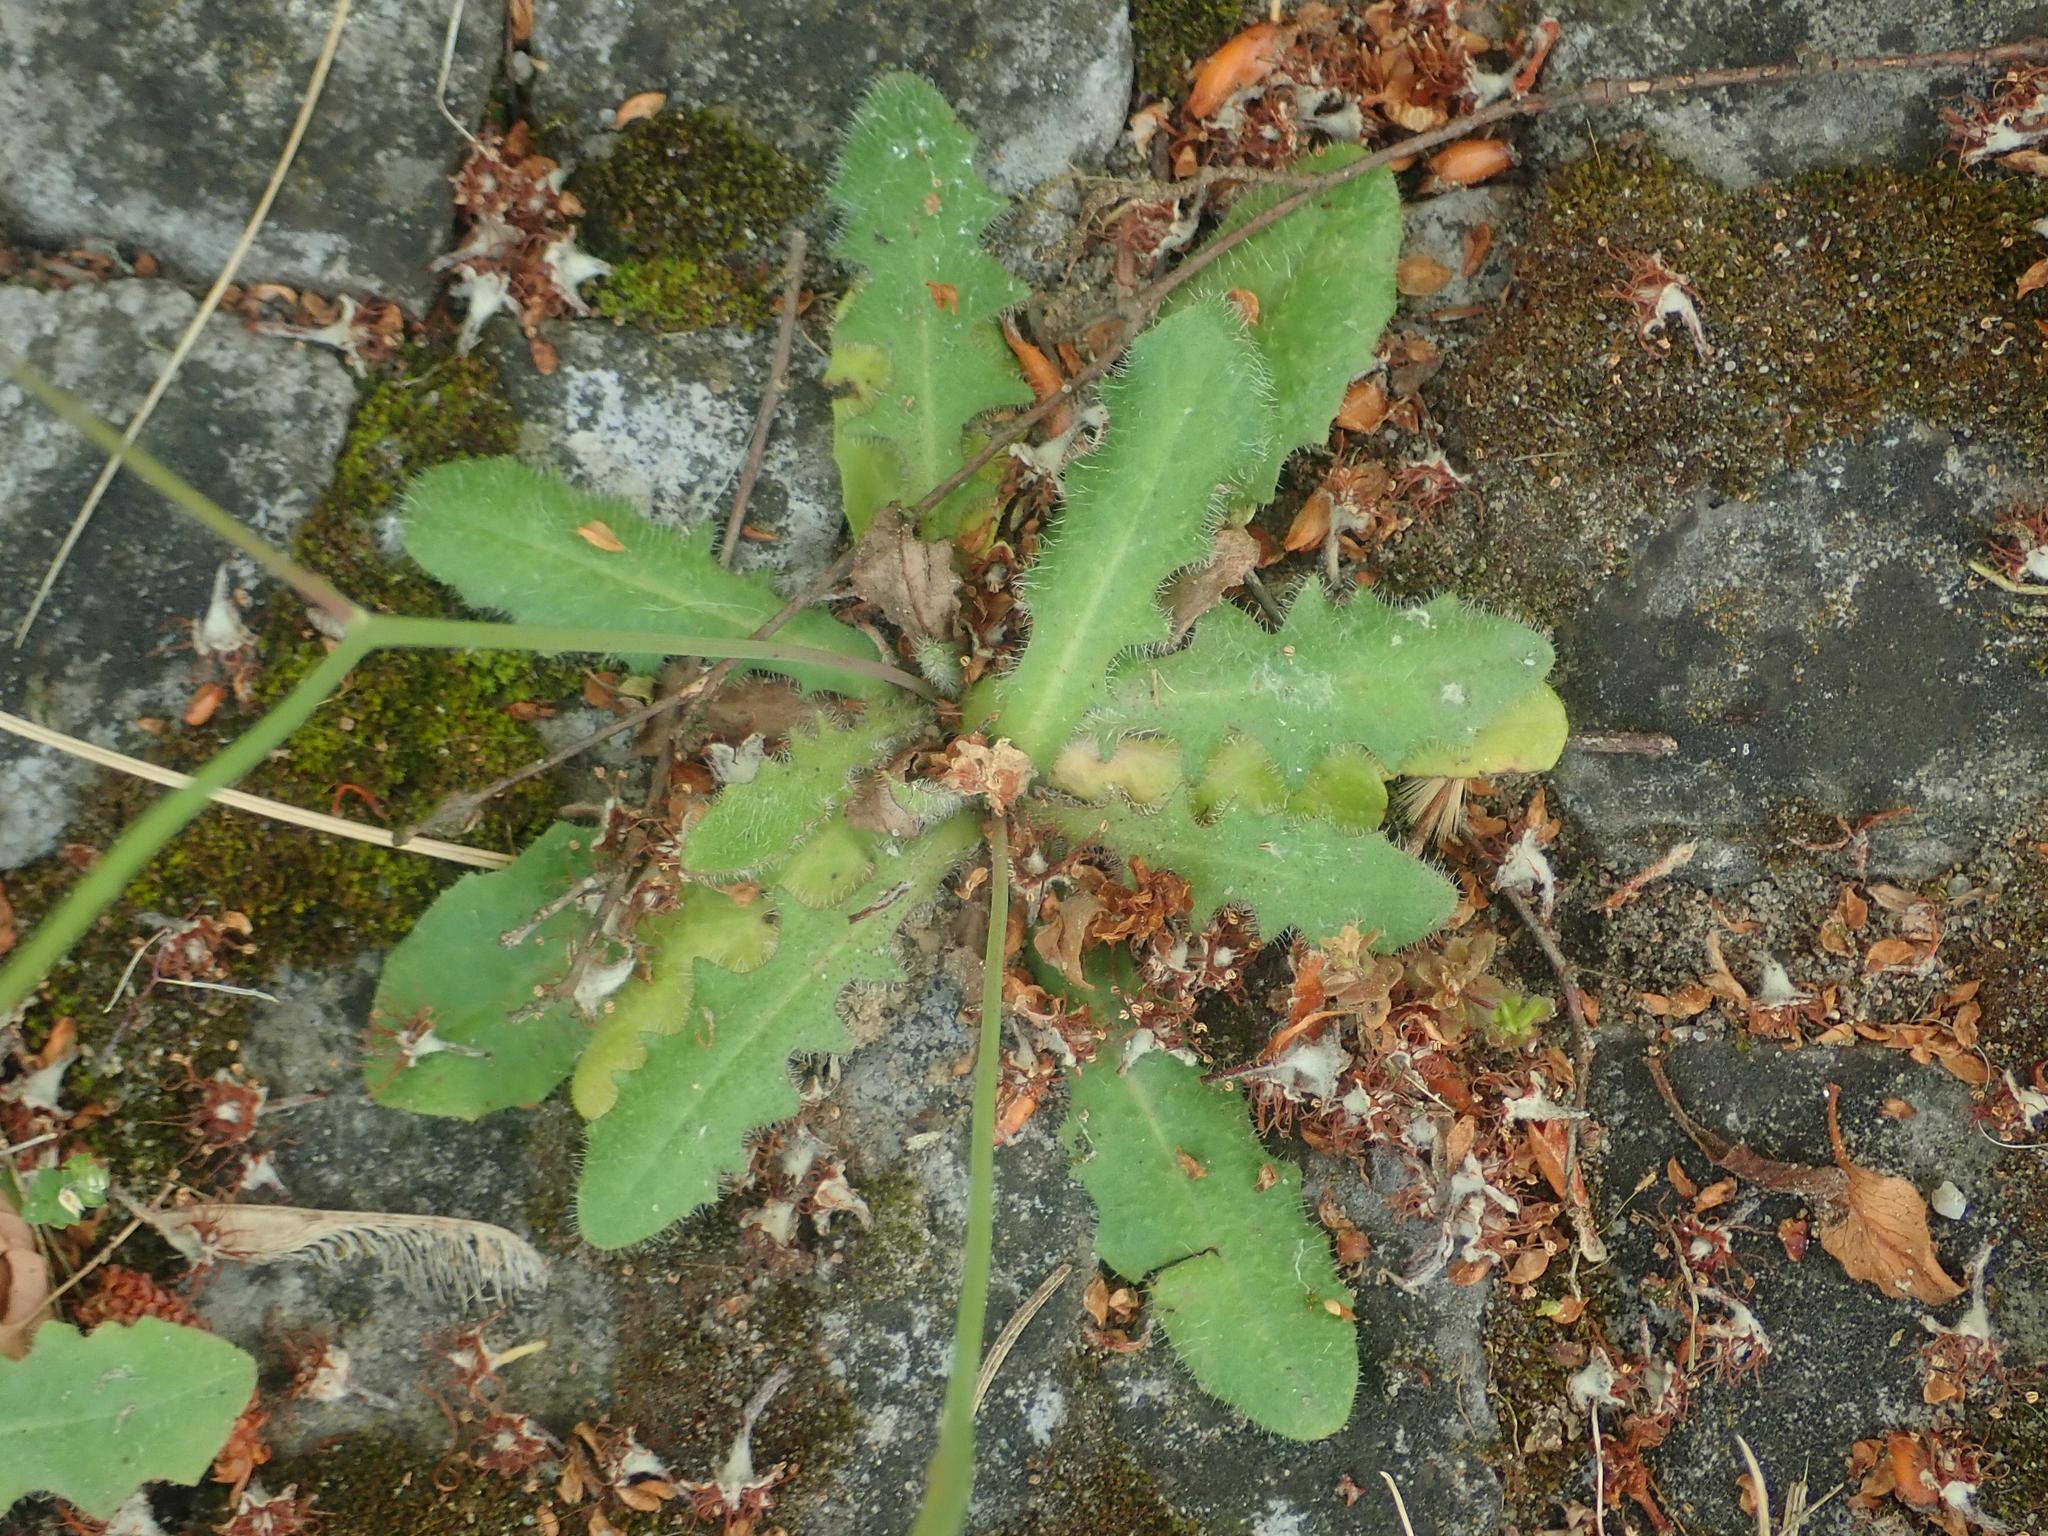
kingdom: Plantae
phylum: Tracheophyta
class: Magnoliopsida
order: Asterales
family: Asteraceae
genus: Hypochaeris
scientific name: Hypochaeris radicata
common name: Flatweed
